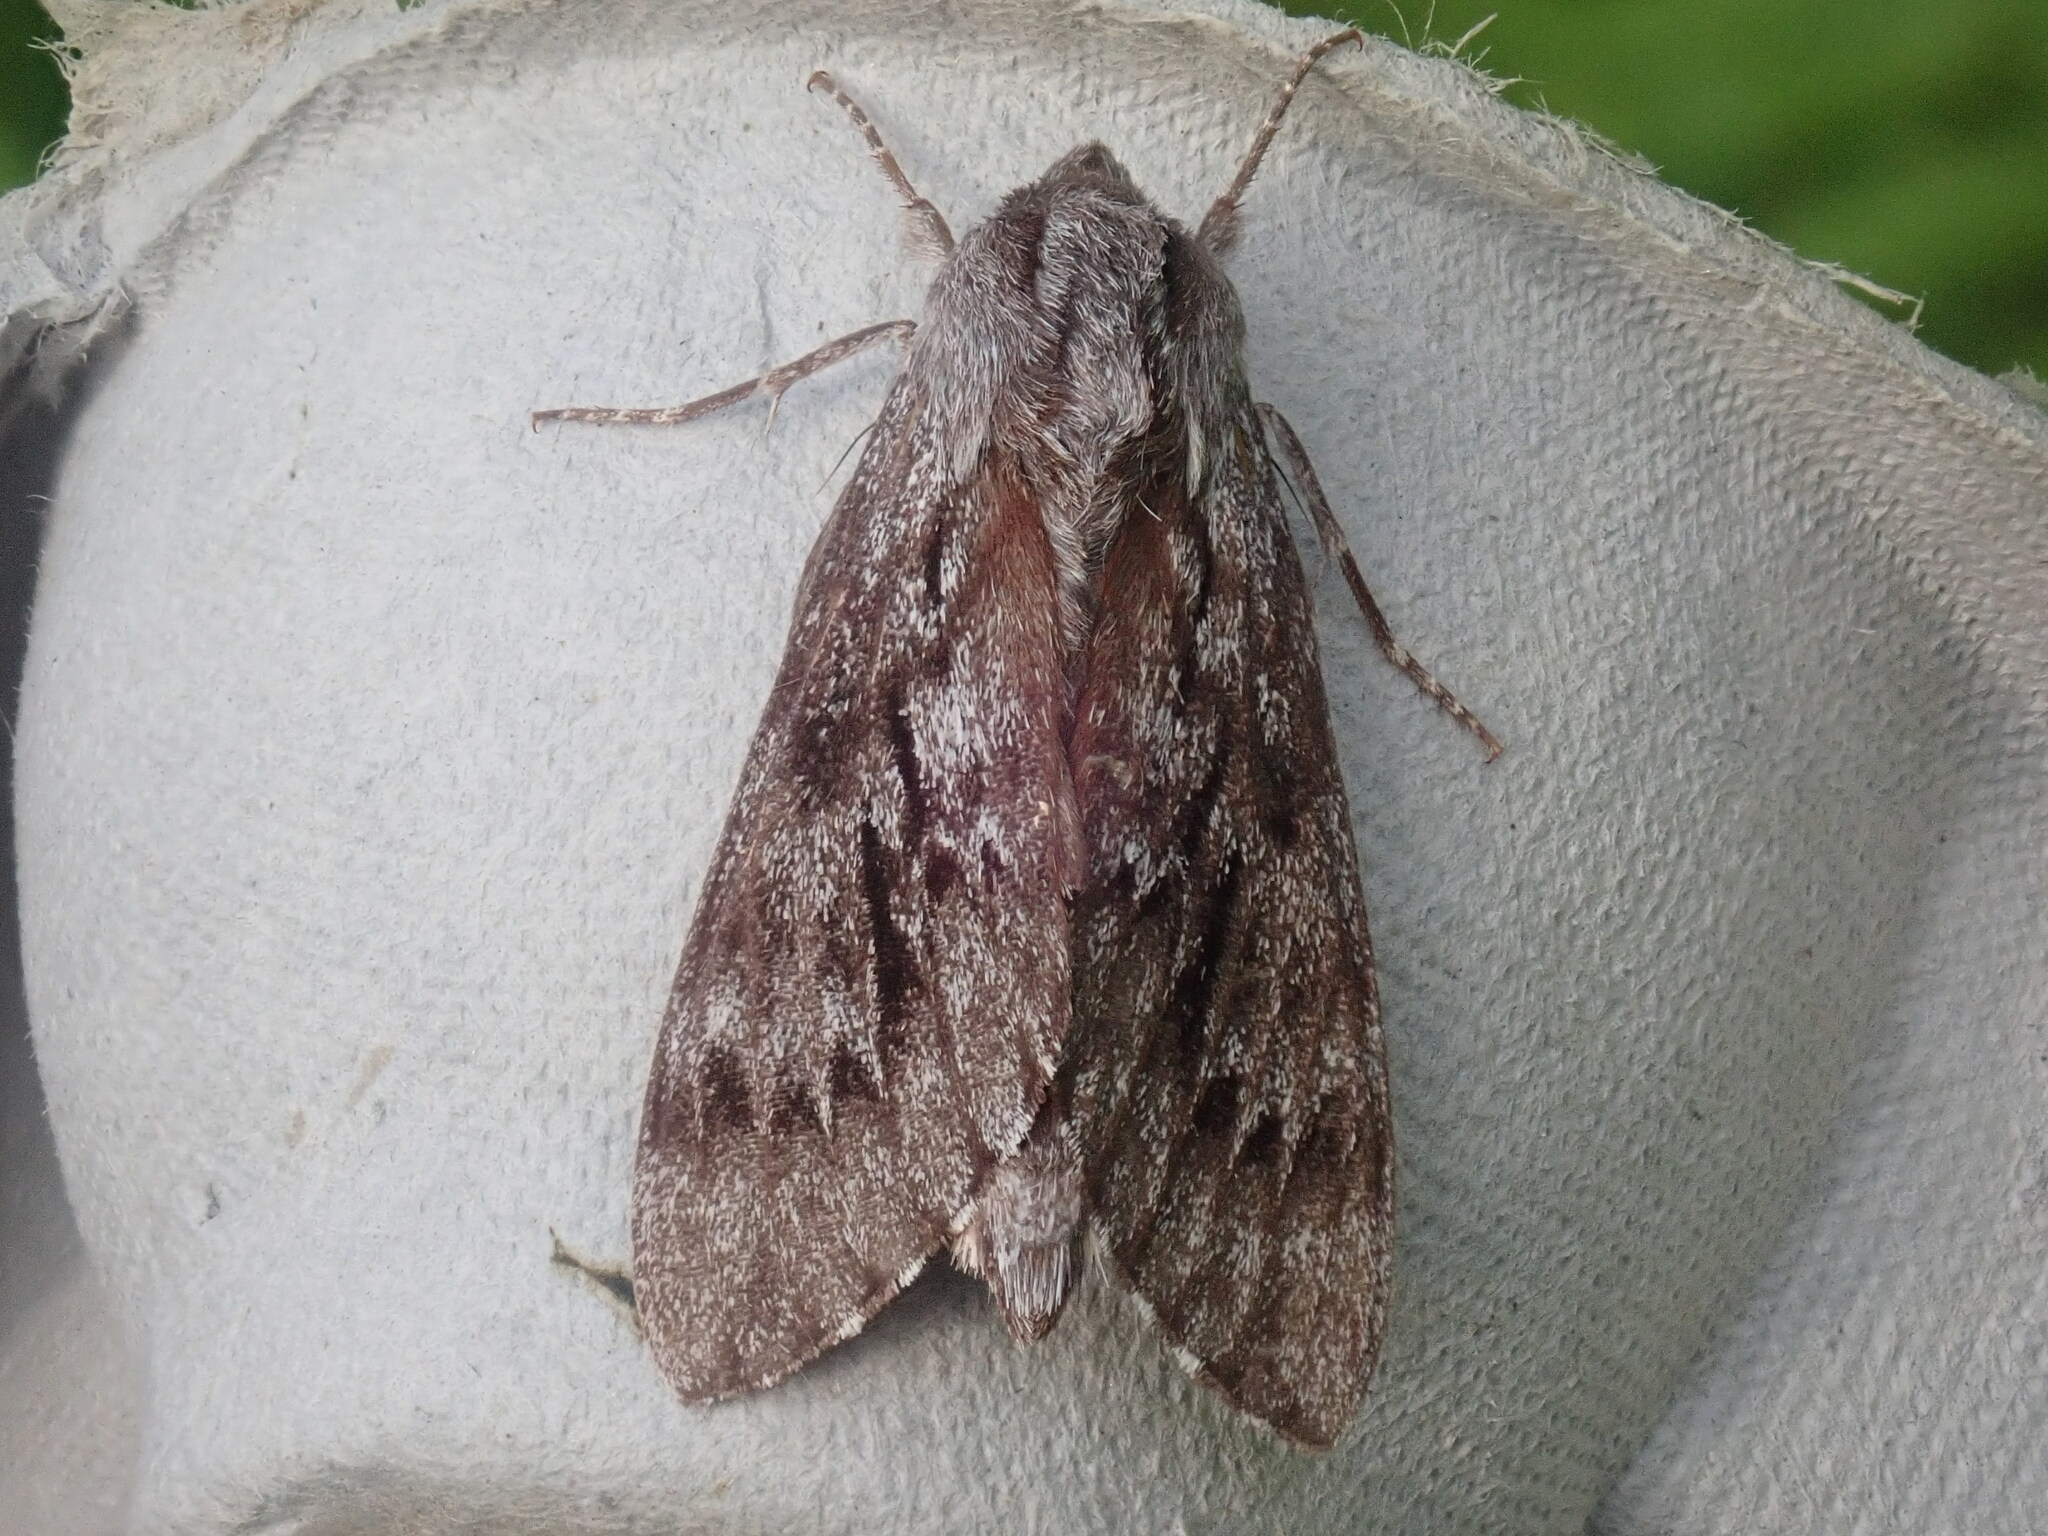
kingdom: Animalia
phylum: Arthropoda
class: Insecta
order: Lepidoptera
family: Sphingidae
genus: Lapara
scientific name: Lapara bombycoides
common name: Northern pine sphinx
